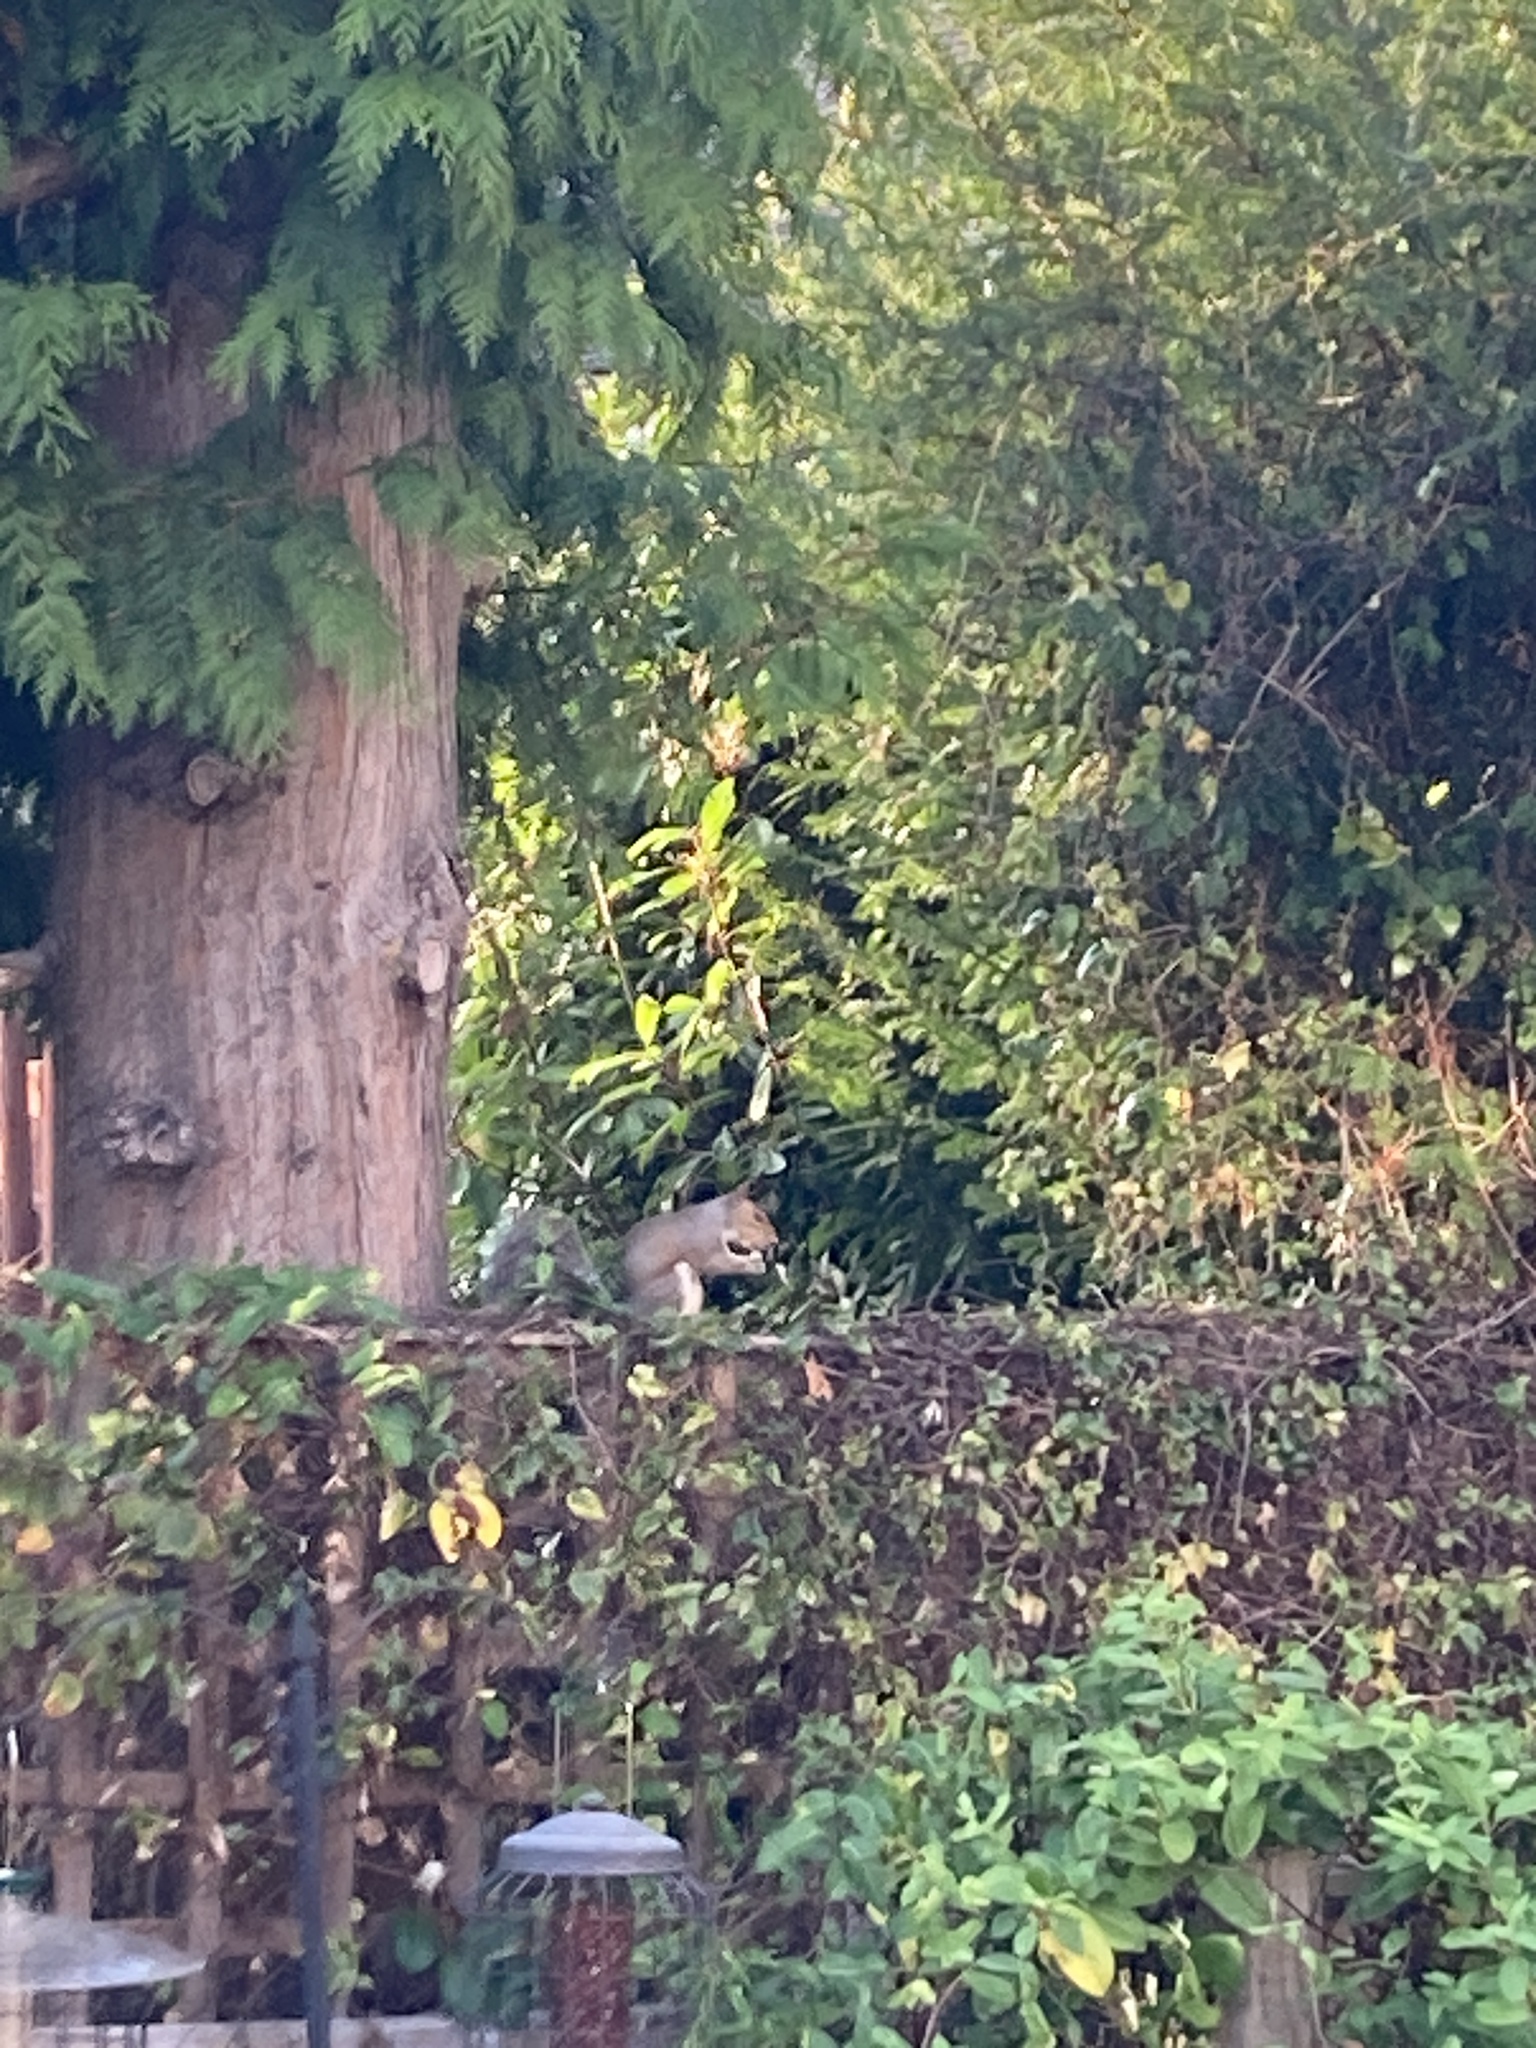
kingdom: Animalia
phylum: Chordata
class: Mammalia
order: Rodentia
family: Sciuridae
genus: Sciurus
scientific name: Sciurus carolinensis
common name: Eastern gray squirrel
